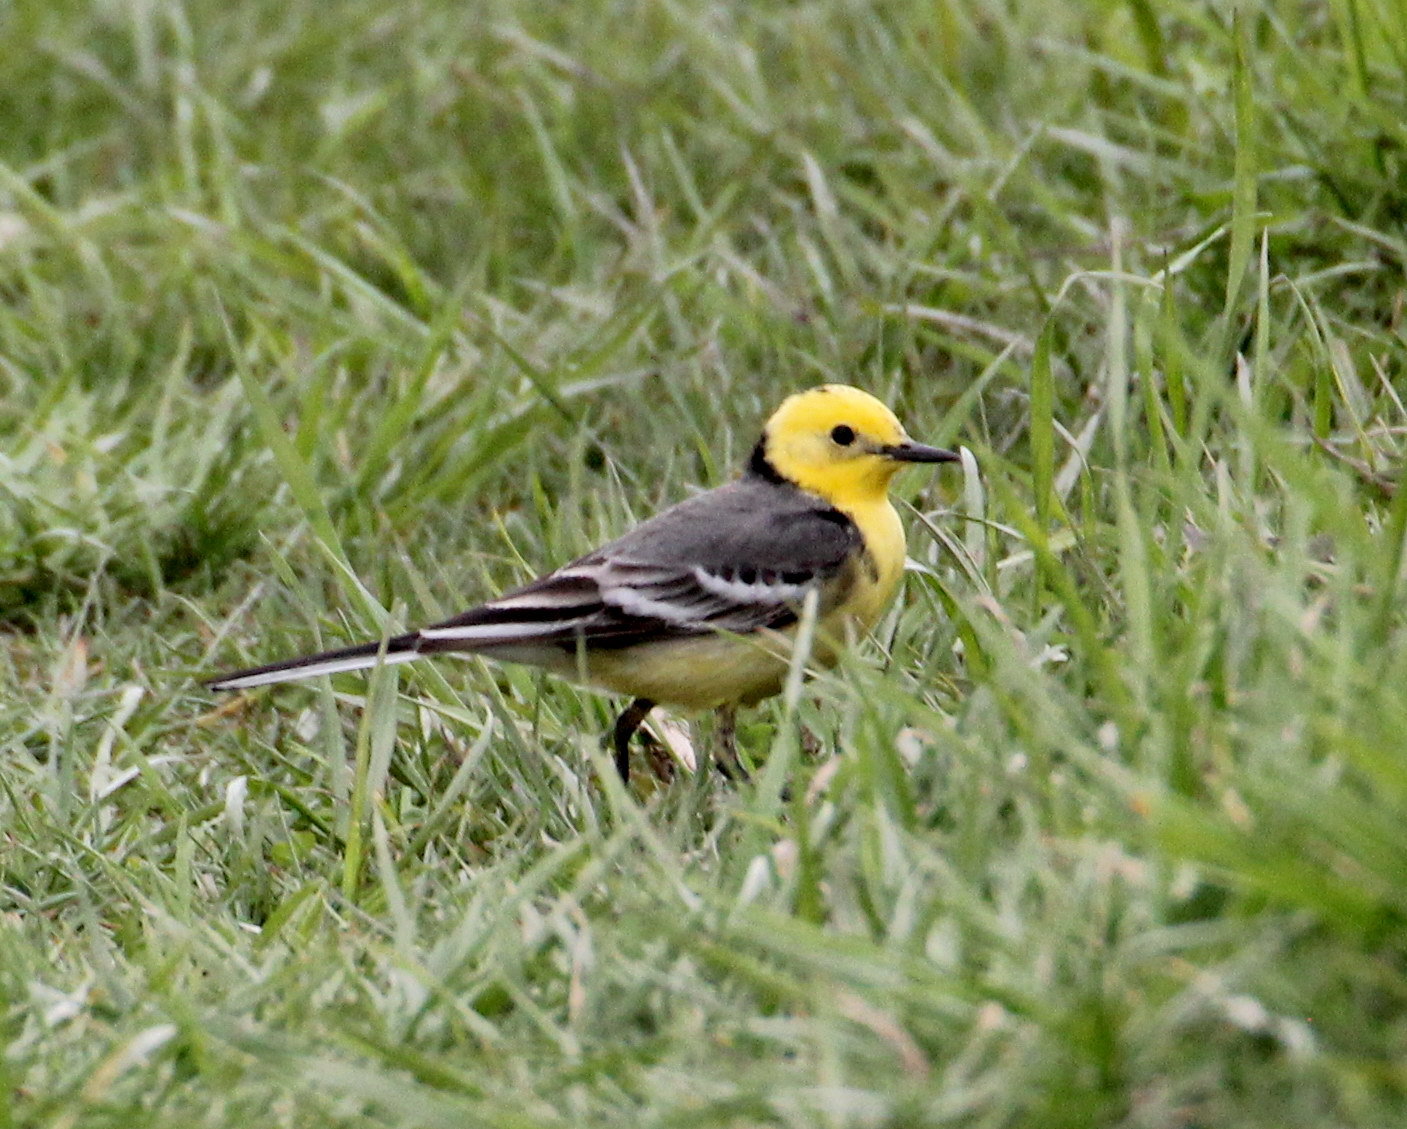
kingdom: Animalia
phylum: Chordata
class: Aves
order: Passeriformes
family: Motacillidae
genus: Motacilla
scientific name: Motacilla citreola
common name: Citrine wagtail
